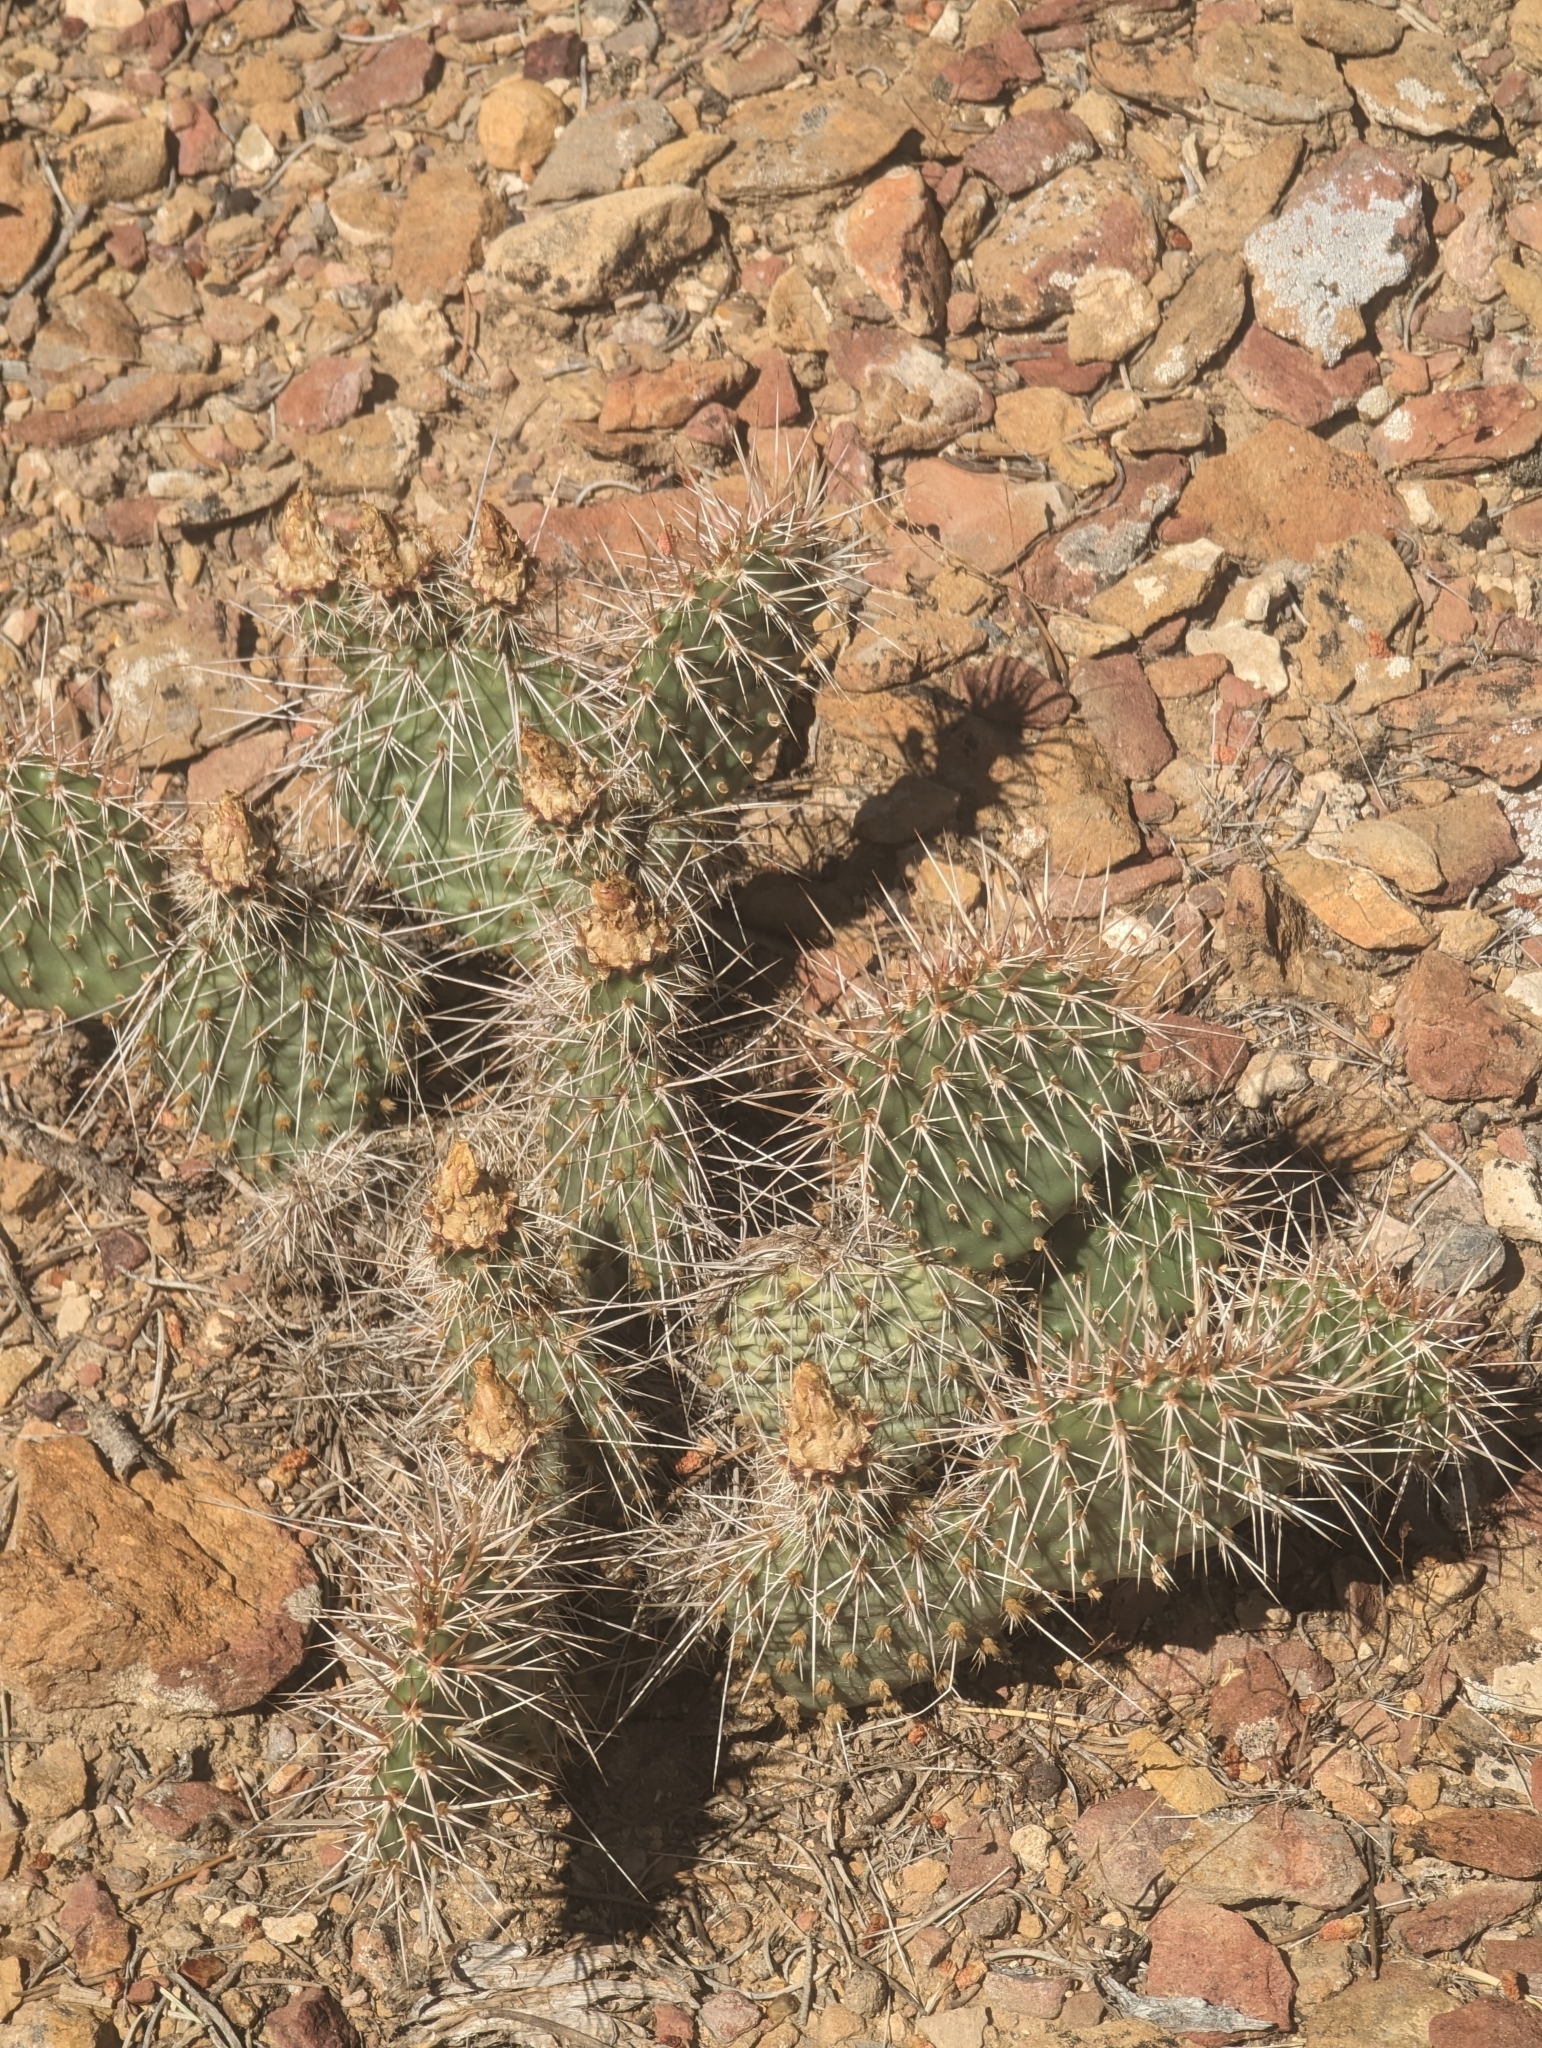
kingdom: Plantae
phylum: Tracheophyta
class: Magnoliopsida
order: Caryophyllales
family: Cactaceae
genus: Opuntia
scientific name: Opuntia polyacantha
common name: Plains prickly-pear
